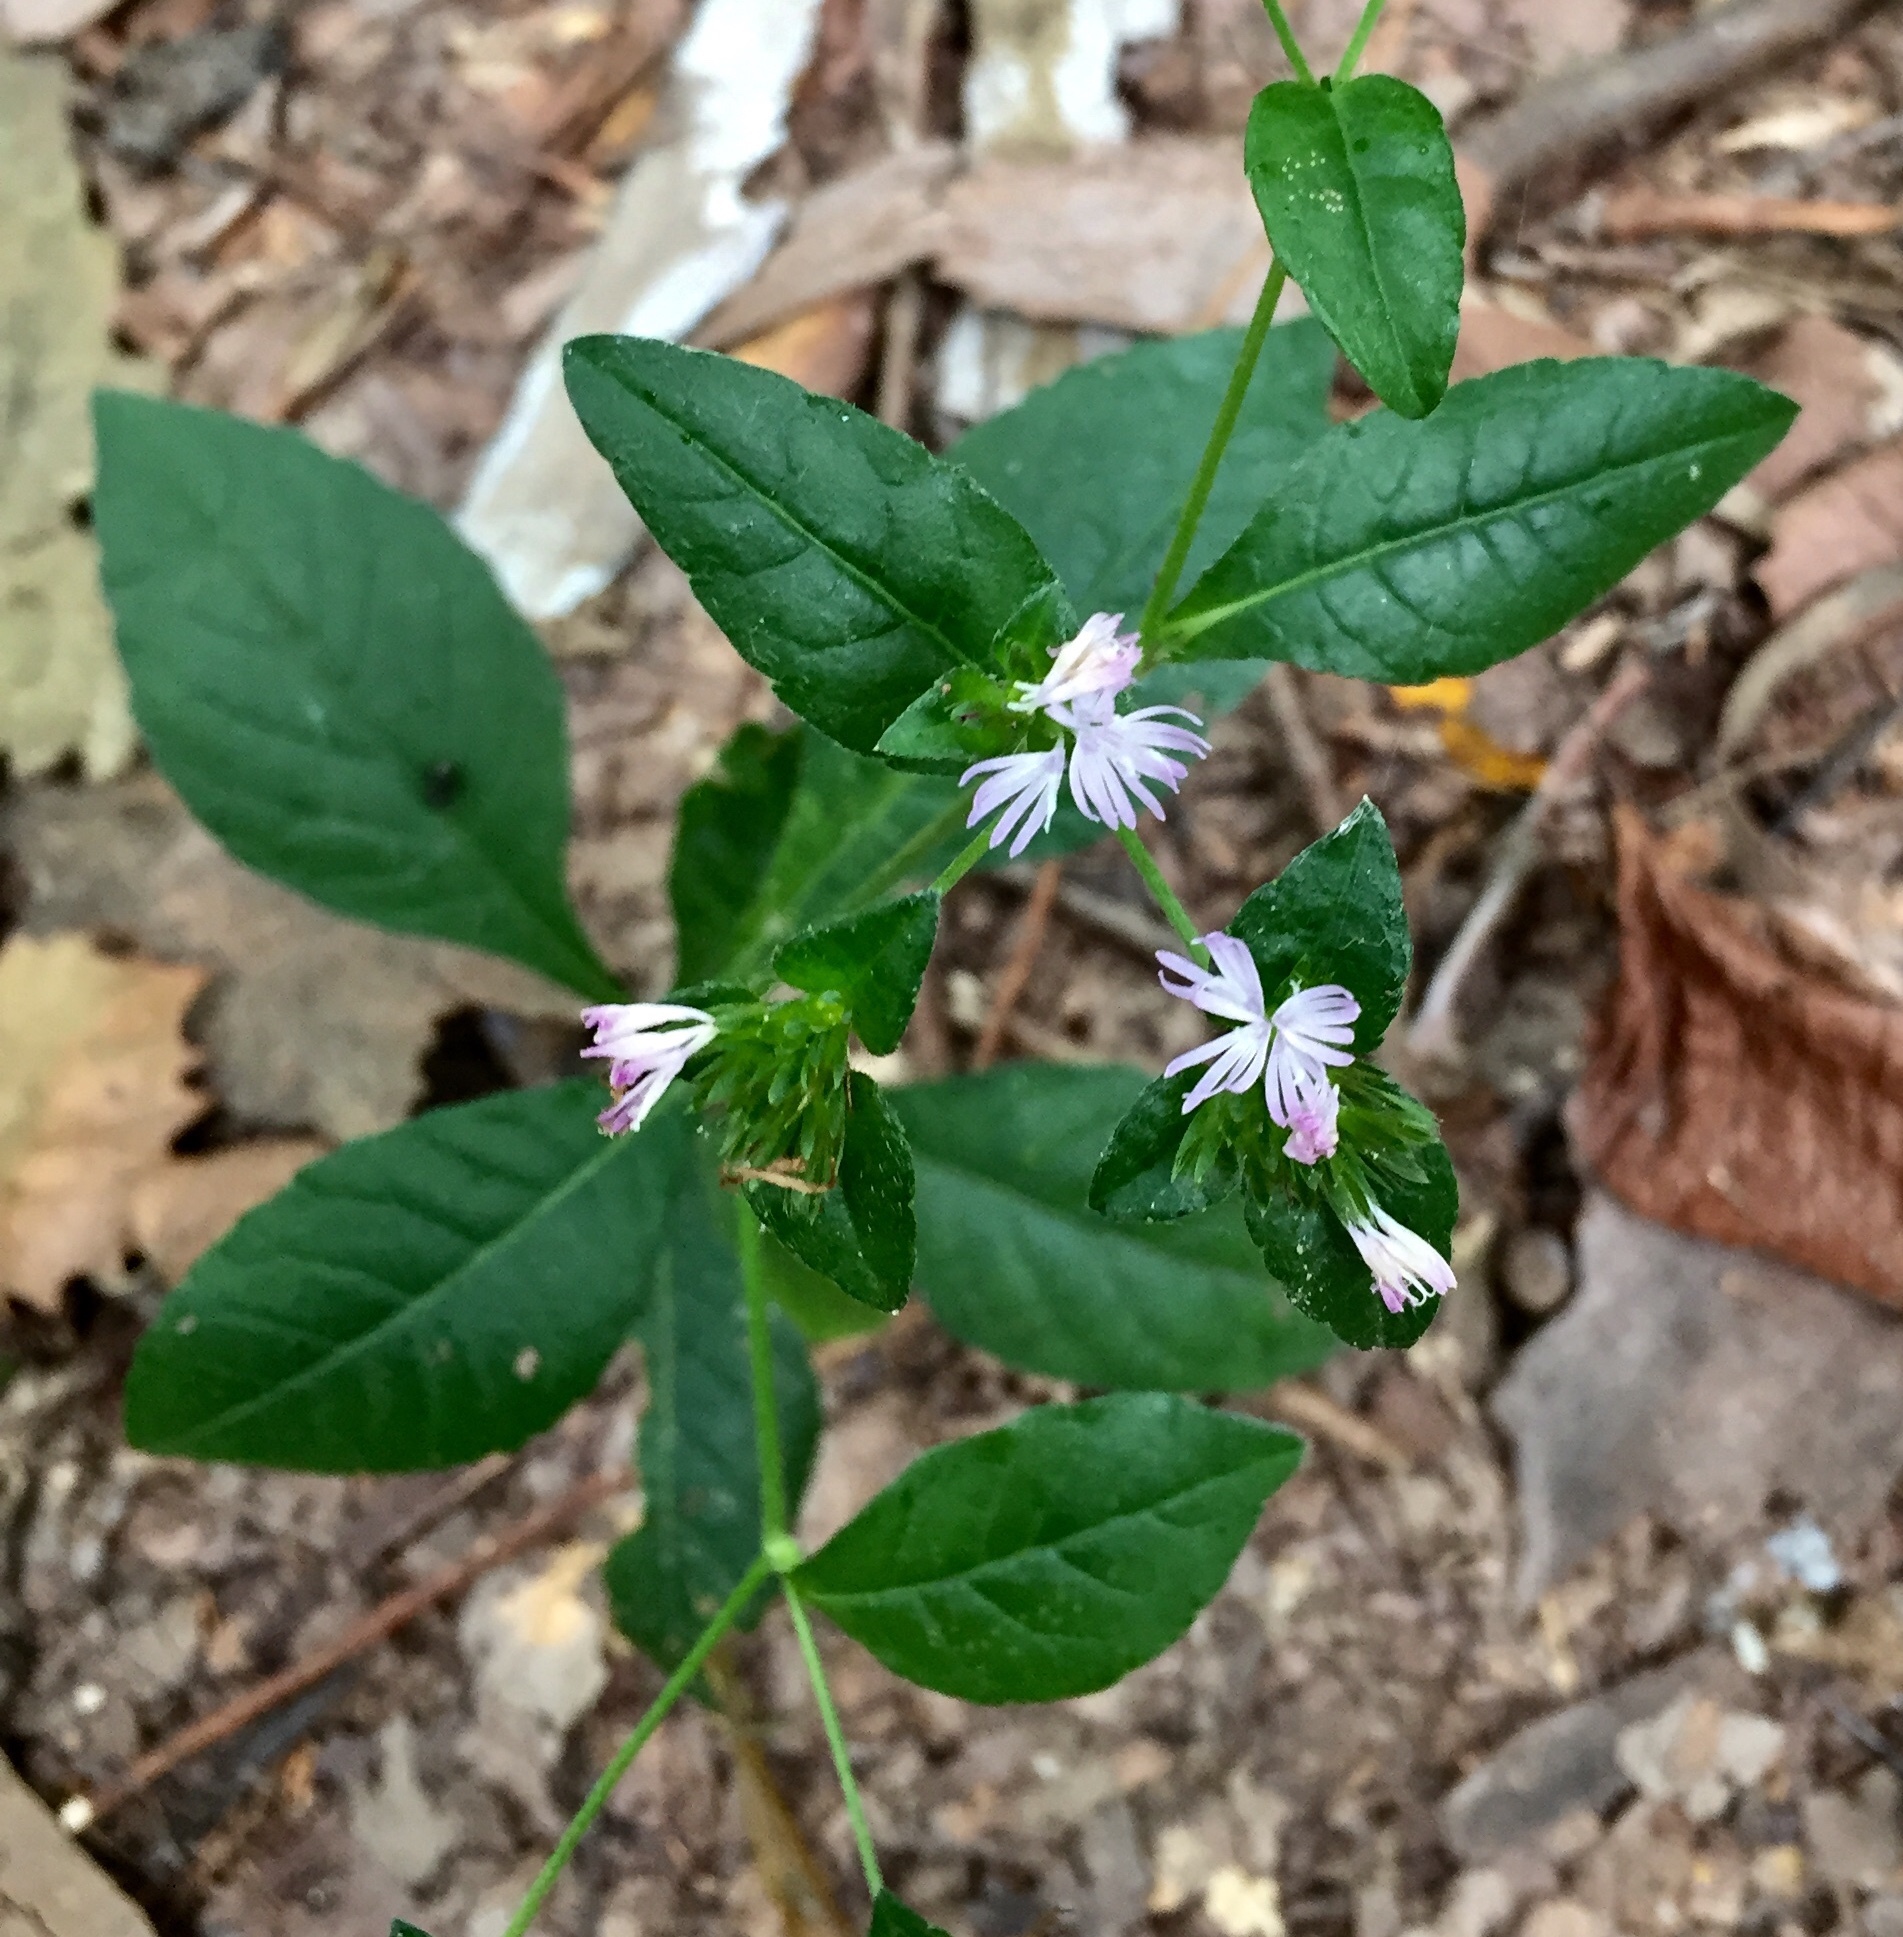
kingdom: Plantae
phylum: Tracheophyta
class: Magnoliopsida
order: Asterales
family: Asteraceae
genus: Elephantopus
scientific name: Elephantopus carolinianus
